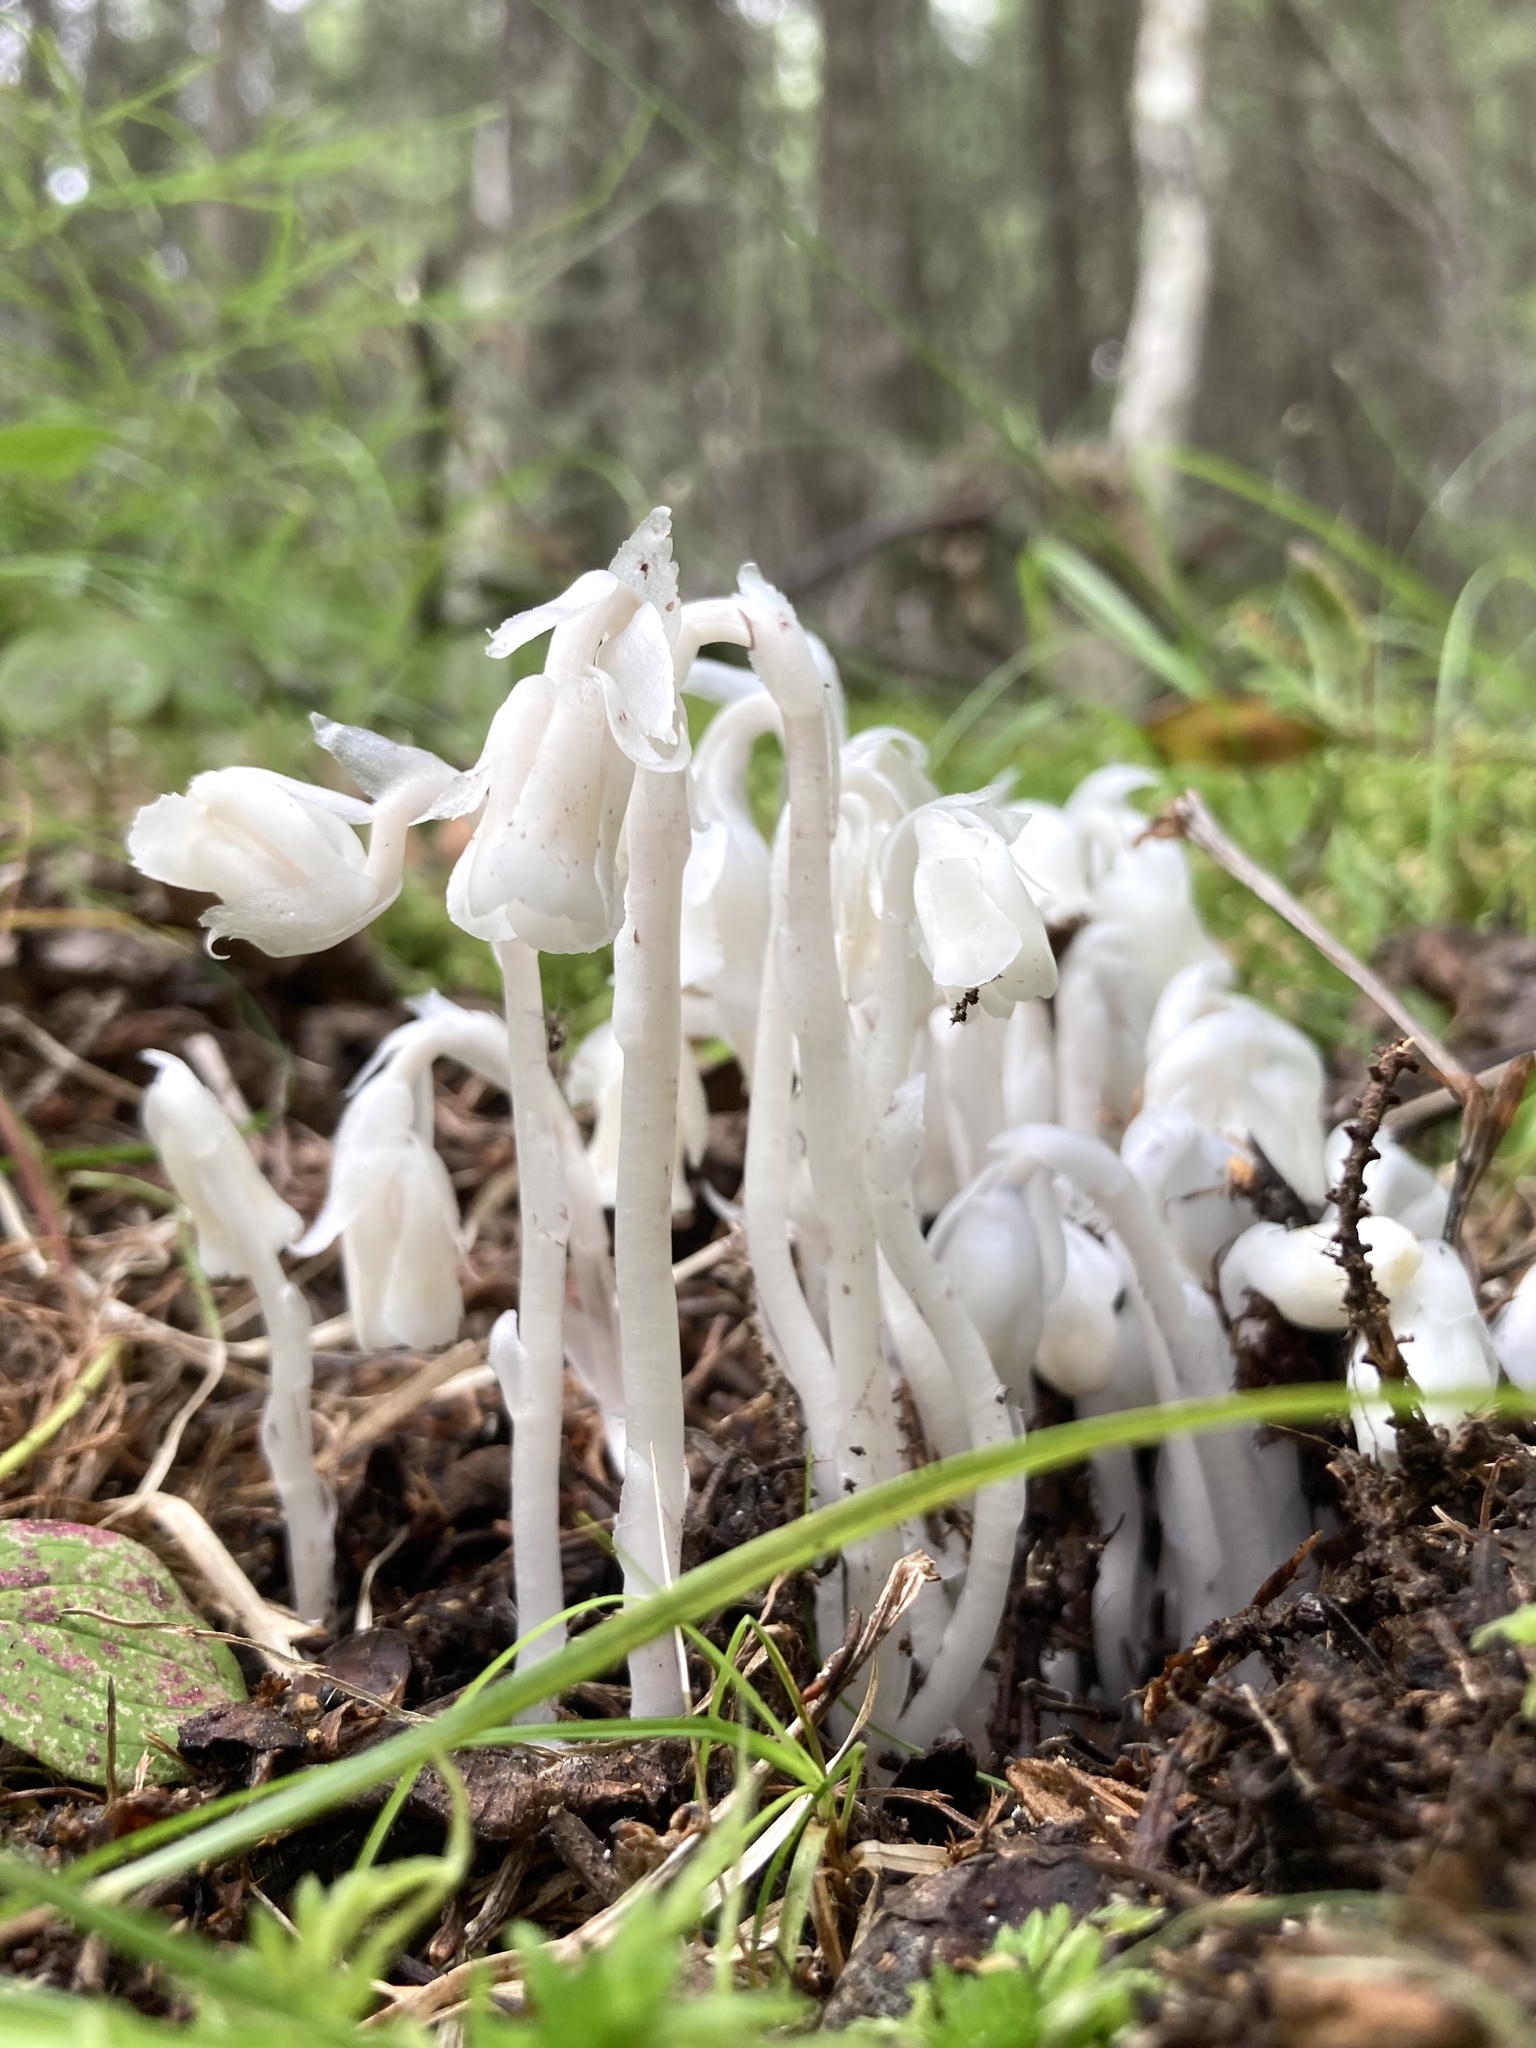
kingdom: Plantae
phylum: Tracheophyta
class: Magnoliopsida
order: Ericales
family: Ericaceae
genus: Monotropa
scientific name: Monotropa uniflora
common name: Convulsion root
